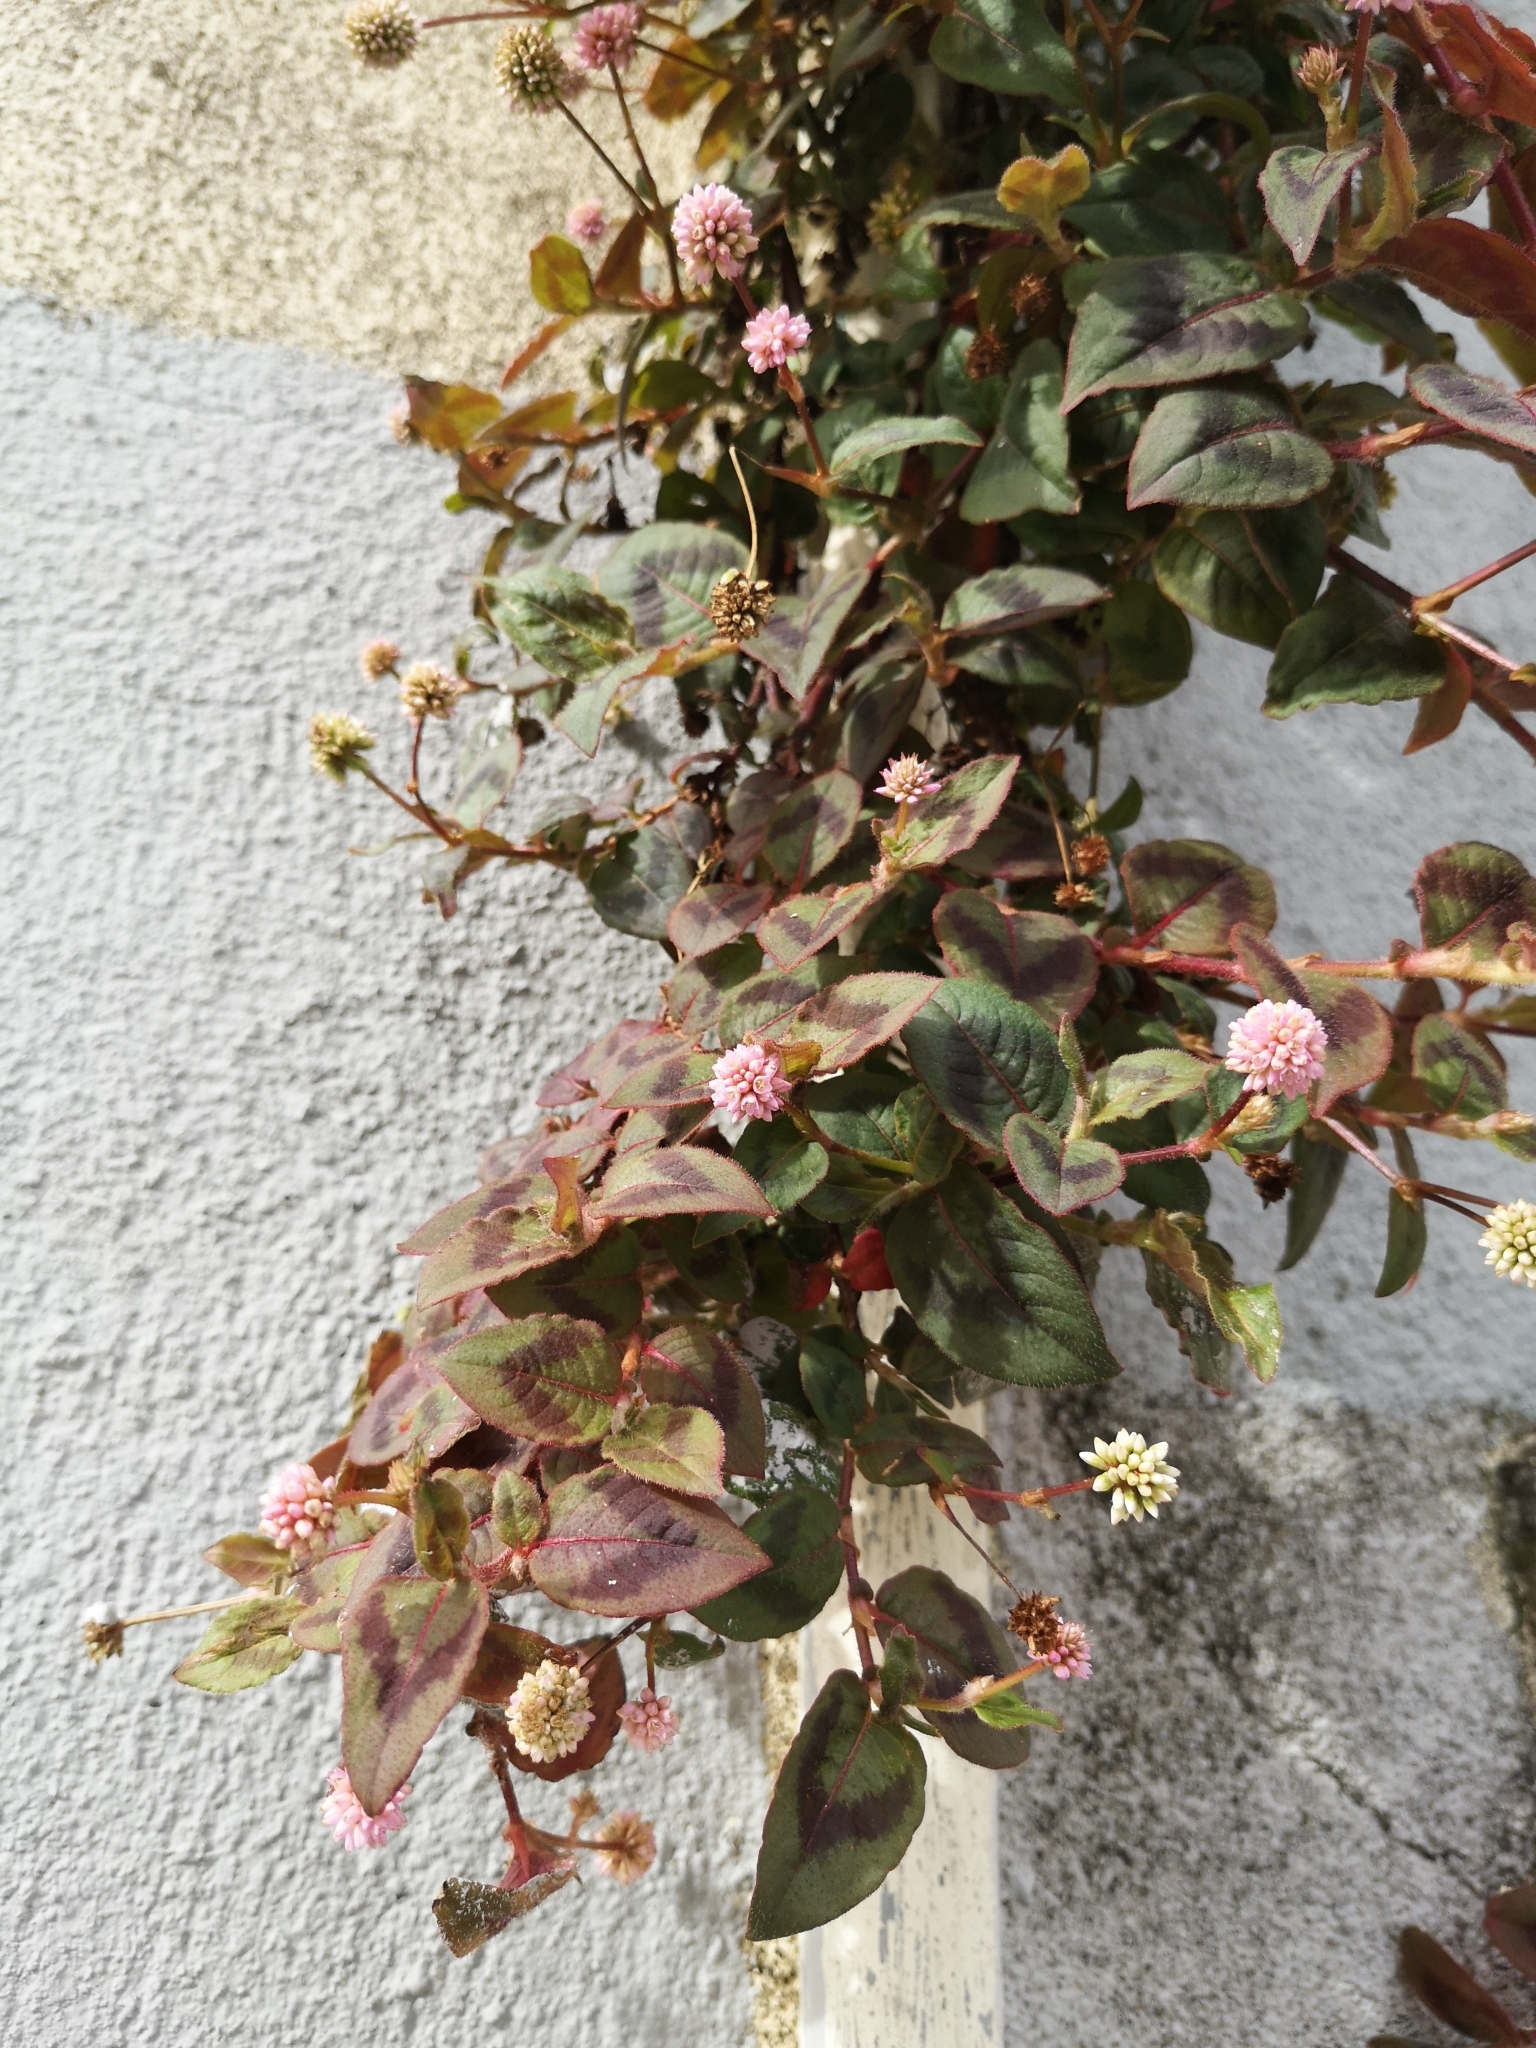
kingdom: Plantae
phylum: Tracheophyta
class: Magnoliopsida
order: Caryophyllales
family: Polygonaceae
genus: Persicaria
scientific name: Persicaria capitata
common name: Pinkhead smartweed
